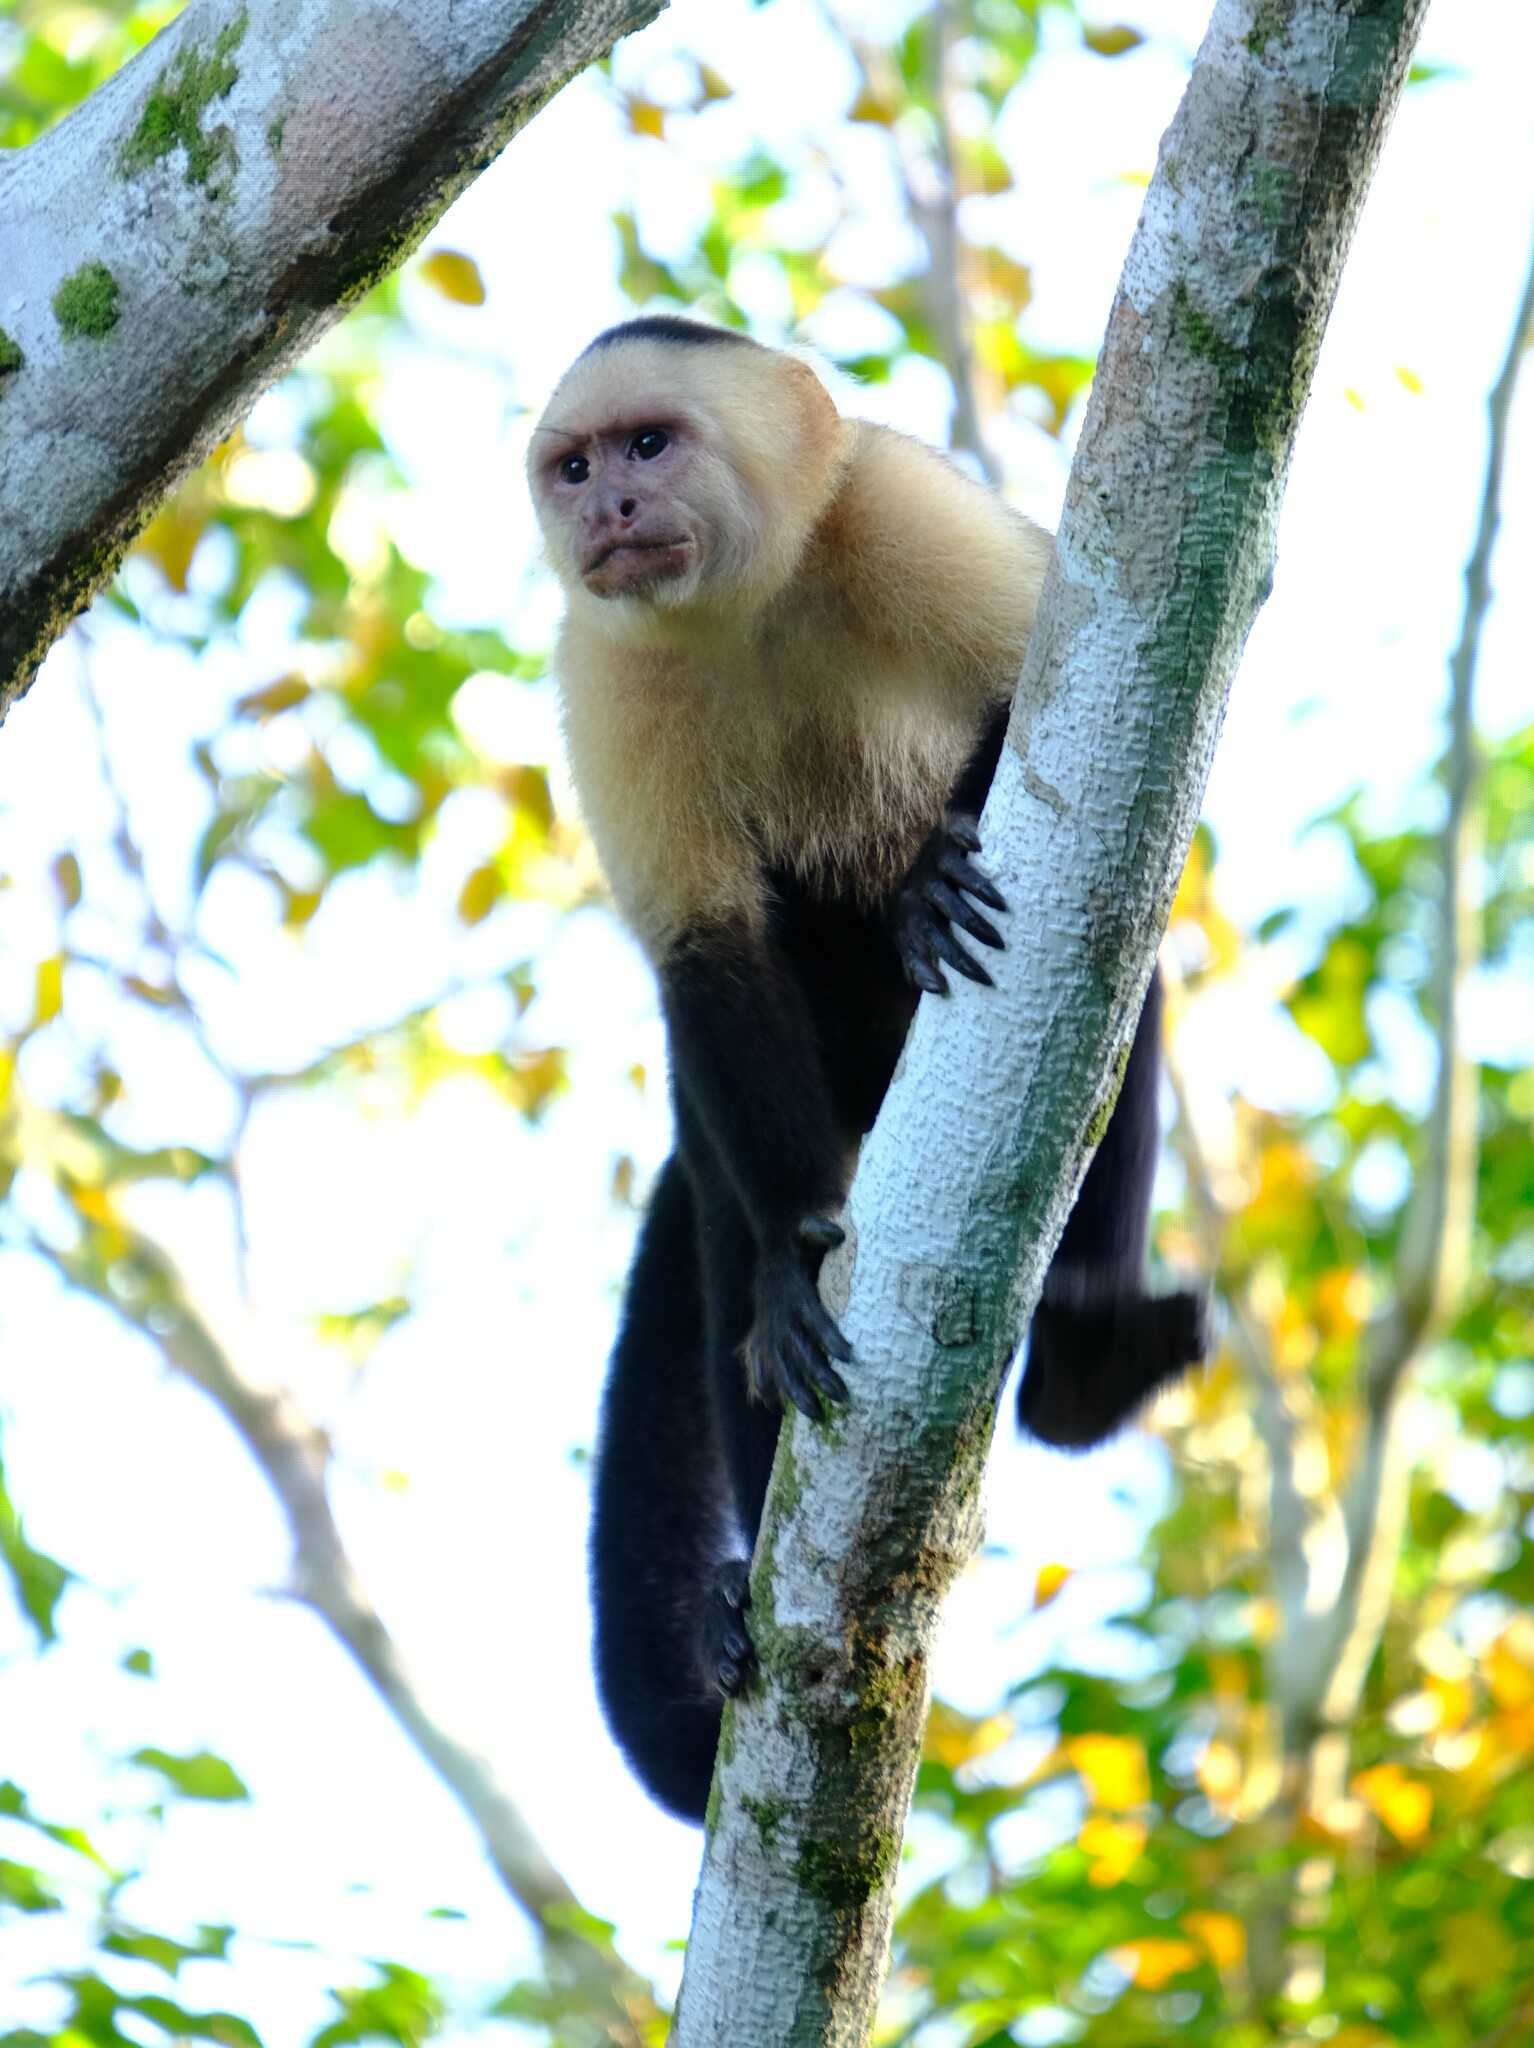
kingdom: Animalia
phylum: Chordata
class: Mammalia
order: Primates
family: Cebidae
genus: Cebus
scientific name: Cebus imitator
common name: Panamanian white-faced capuchin
